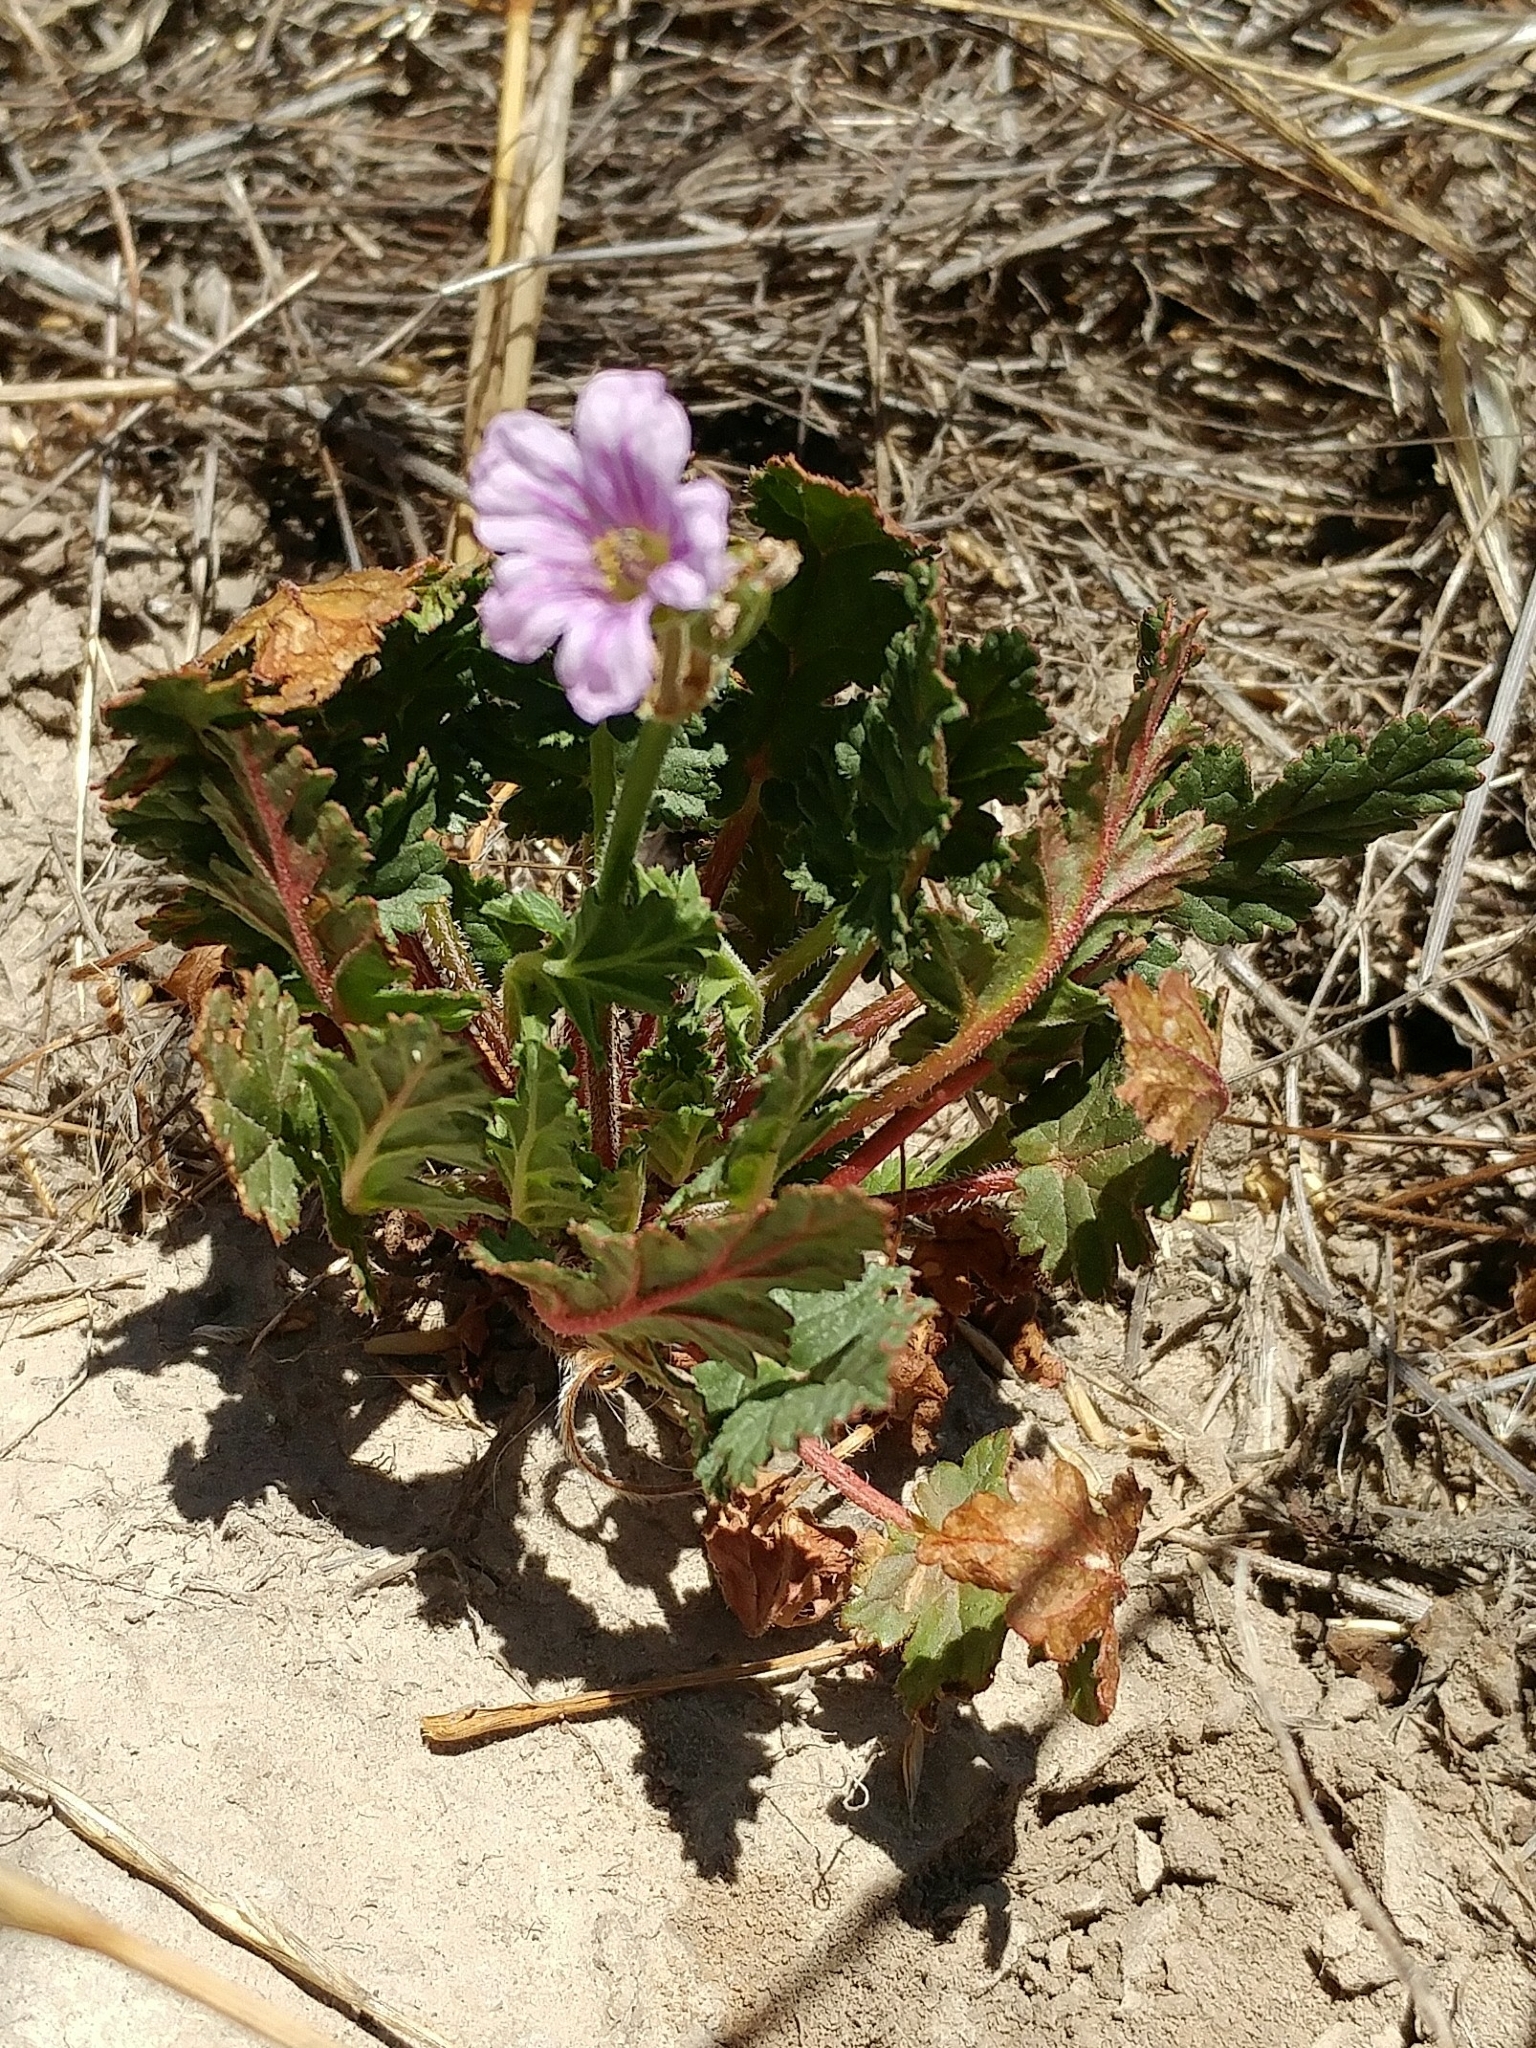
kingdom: Plantae
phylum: Tracheophyta
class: Magnoliopsida
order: Geraniales
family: Geraniaceae
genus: Erodium
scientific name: Erodium botrys
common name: Mediterranean stork's-bill
